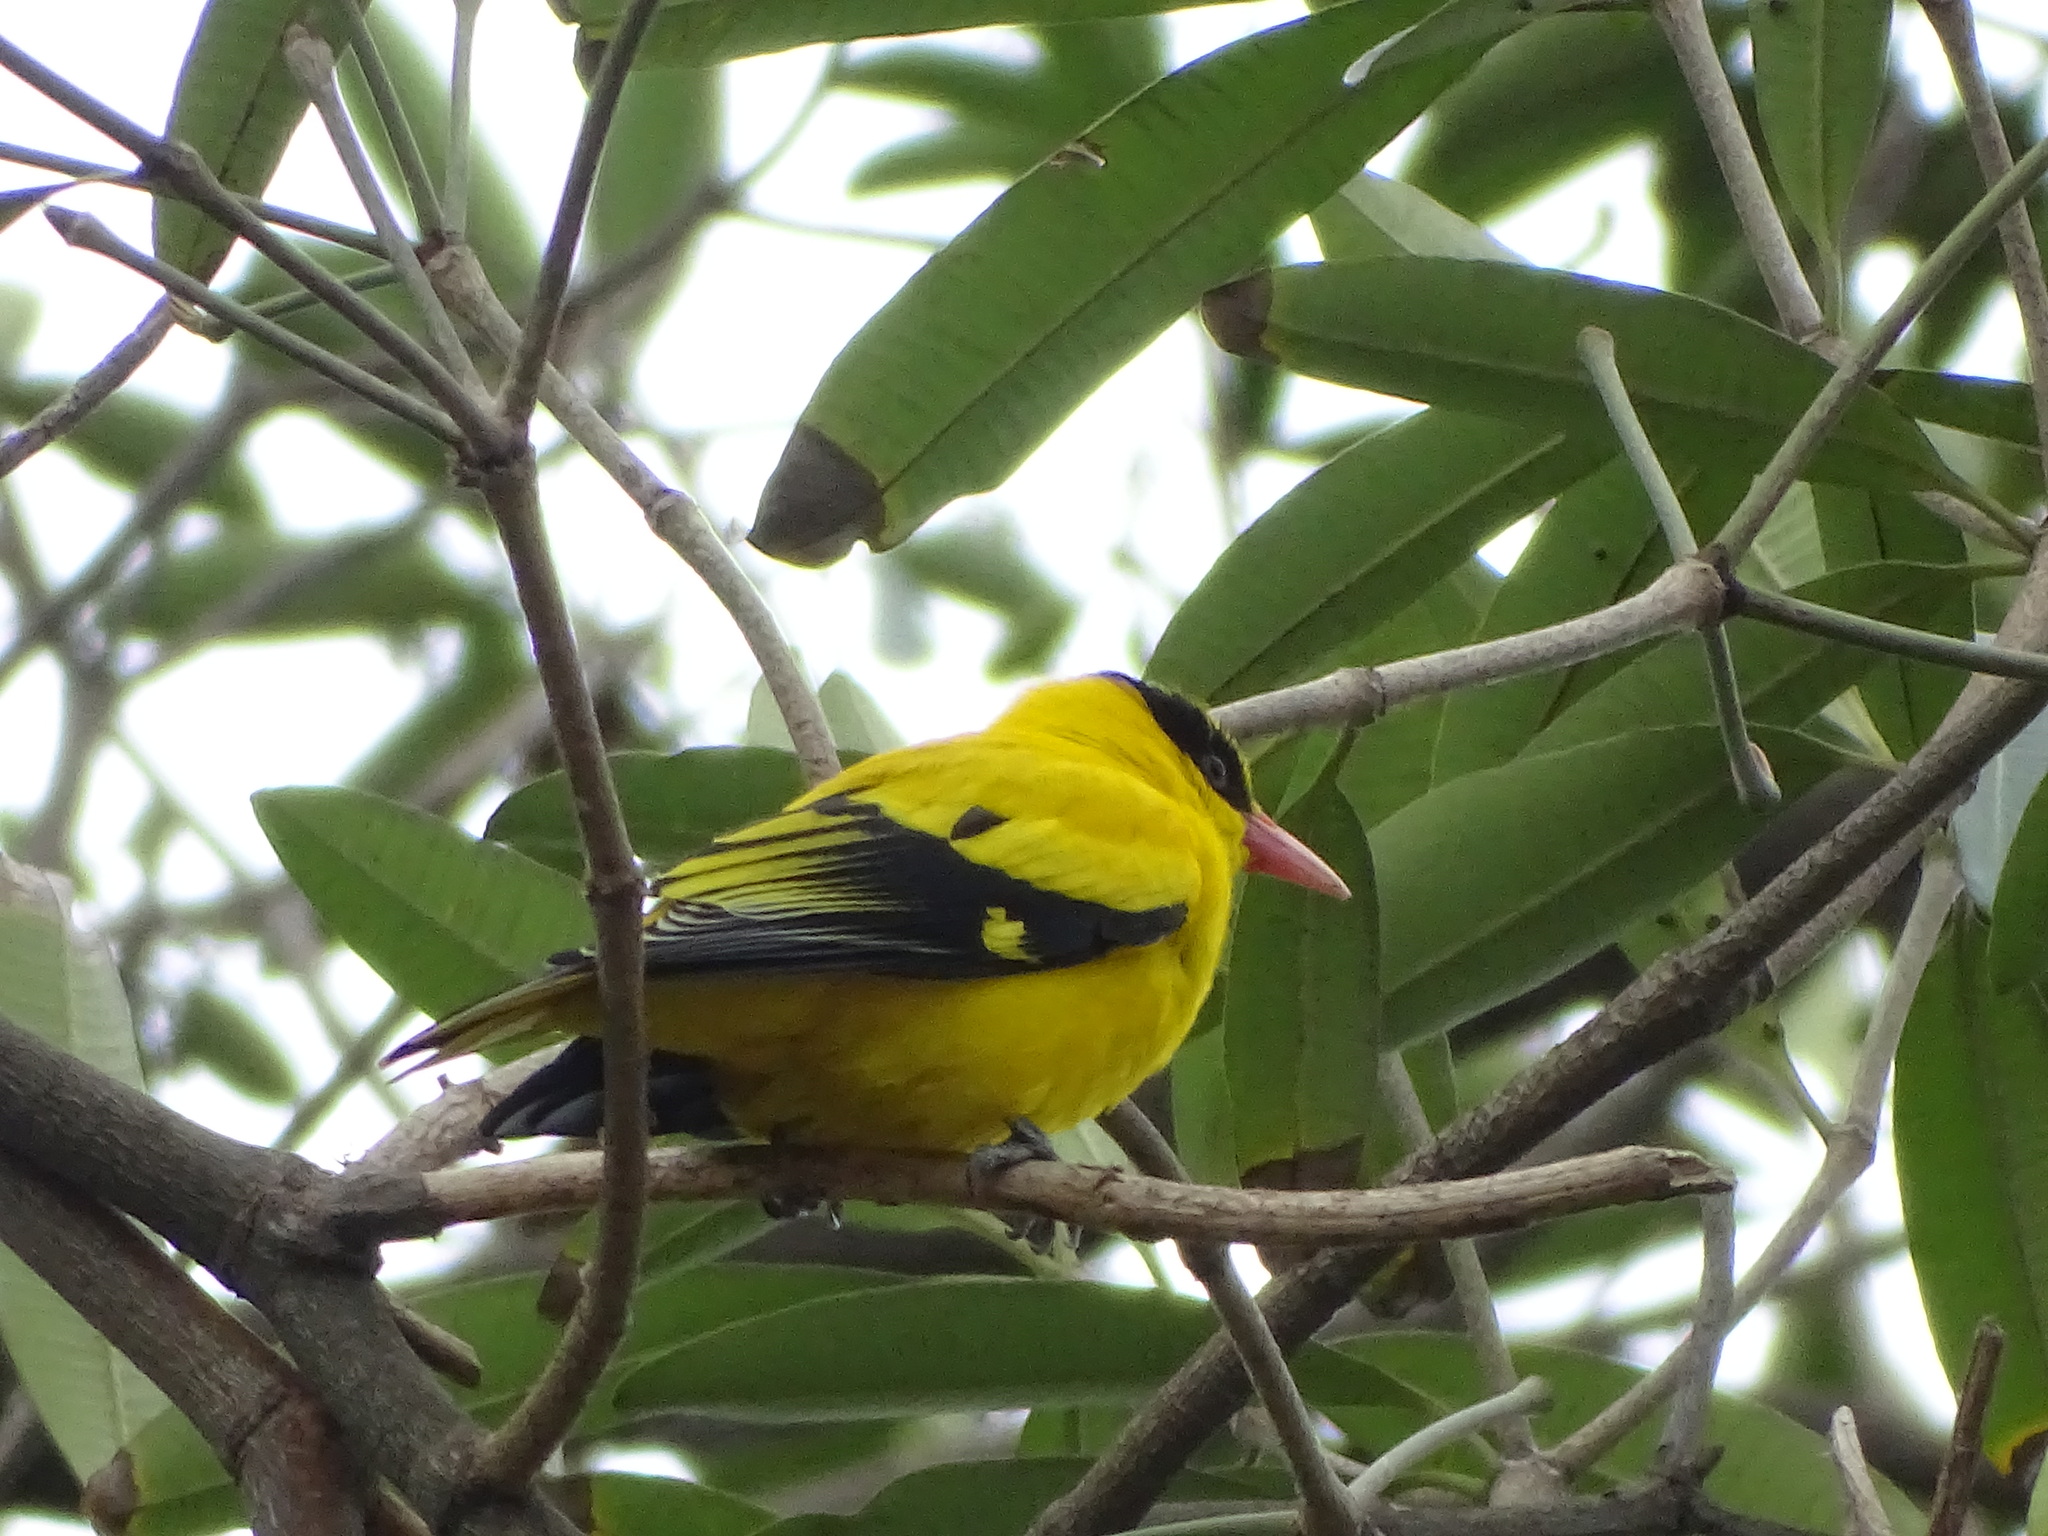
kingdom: Animalia
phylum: Chordata
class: Aves
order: Passeriformes
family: Oriolidae
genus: Oriolus
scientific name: Oriolus chinensis
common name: Black-naped oriole
